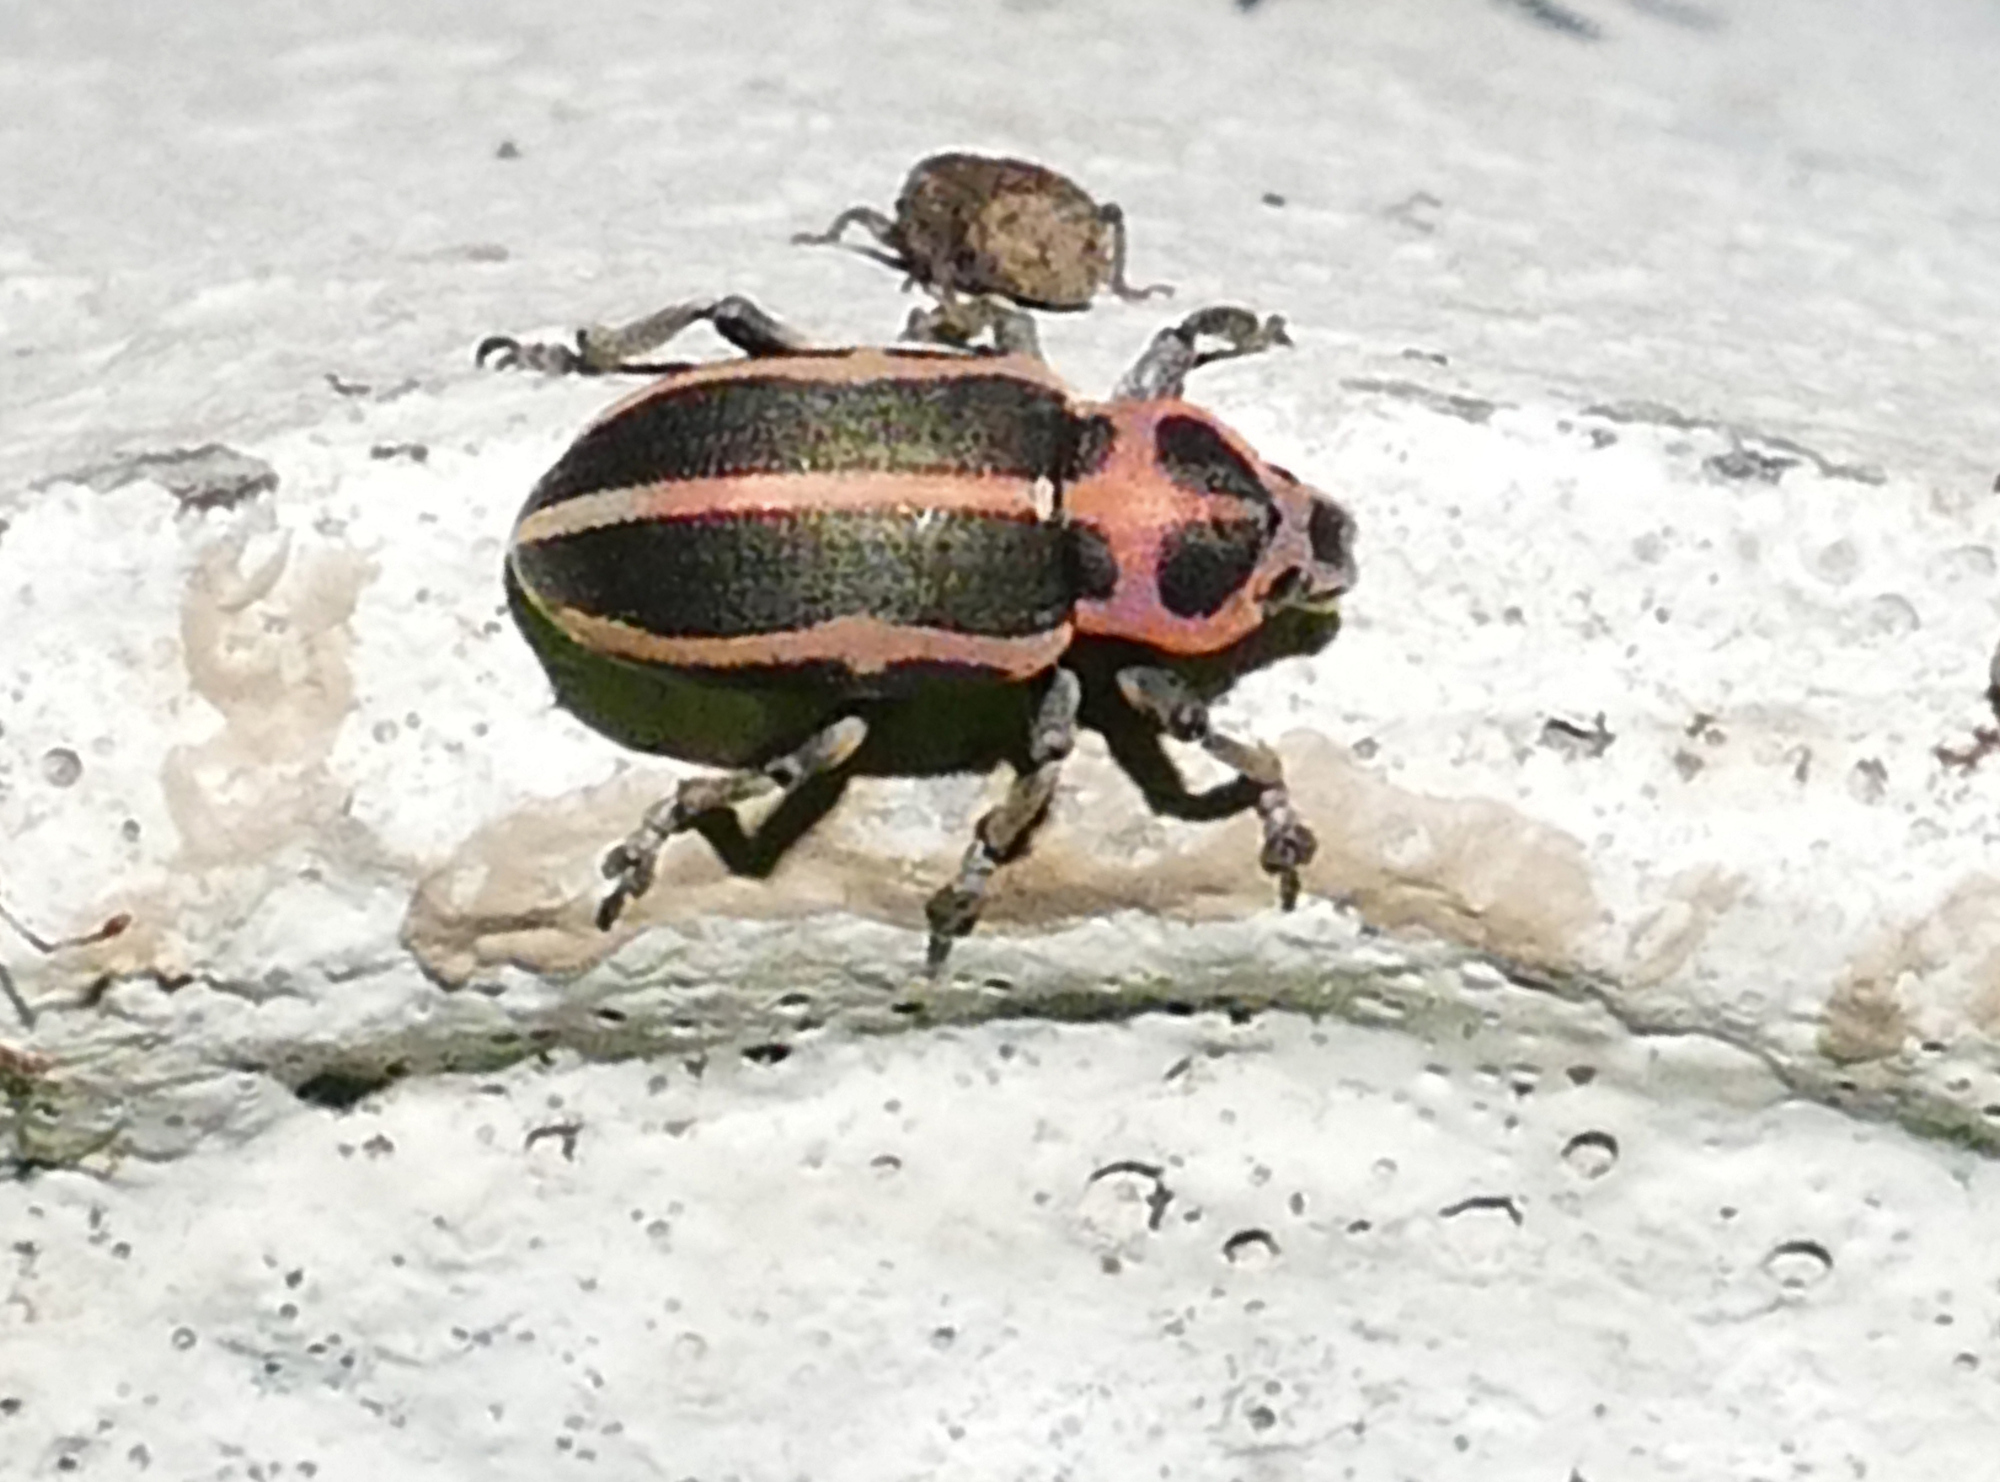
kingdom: Animalia
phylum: Arthropoda
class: Insecta
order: Coleoptera
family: Curculionidae
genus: Eudiagogus
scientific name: Eudiagogus pulcher
